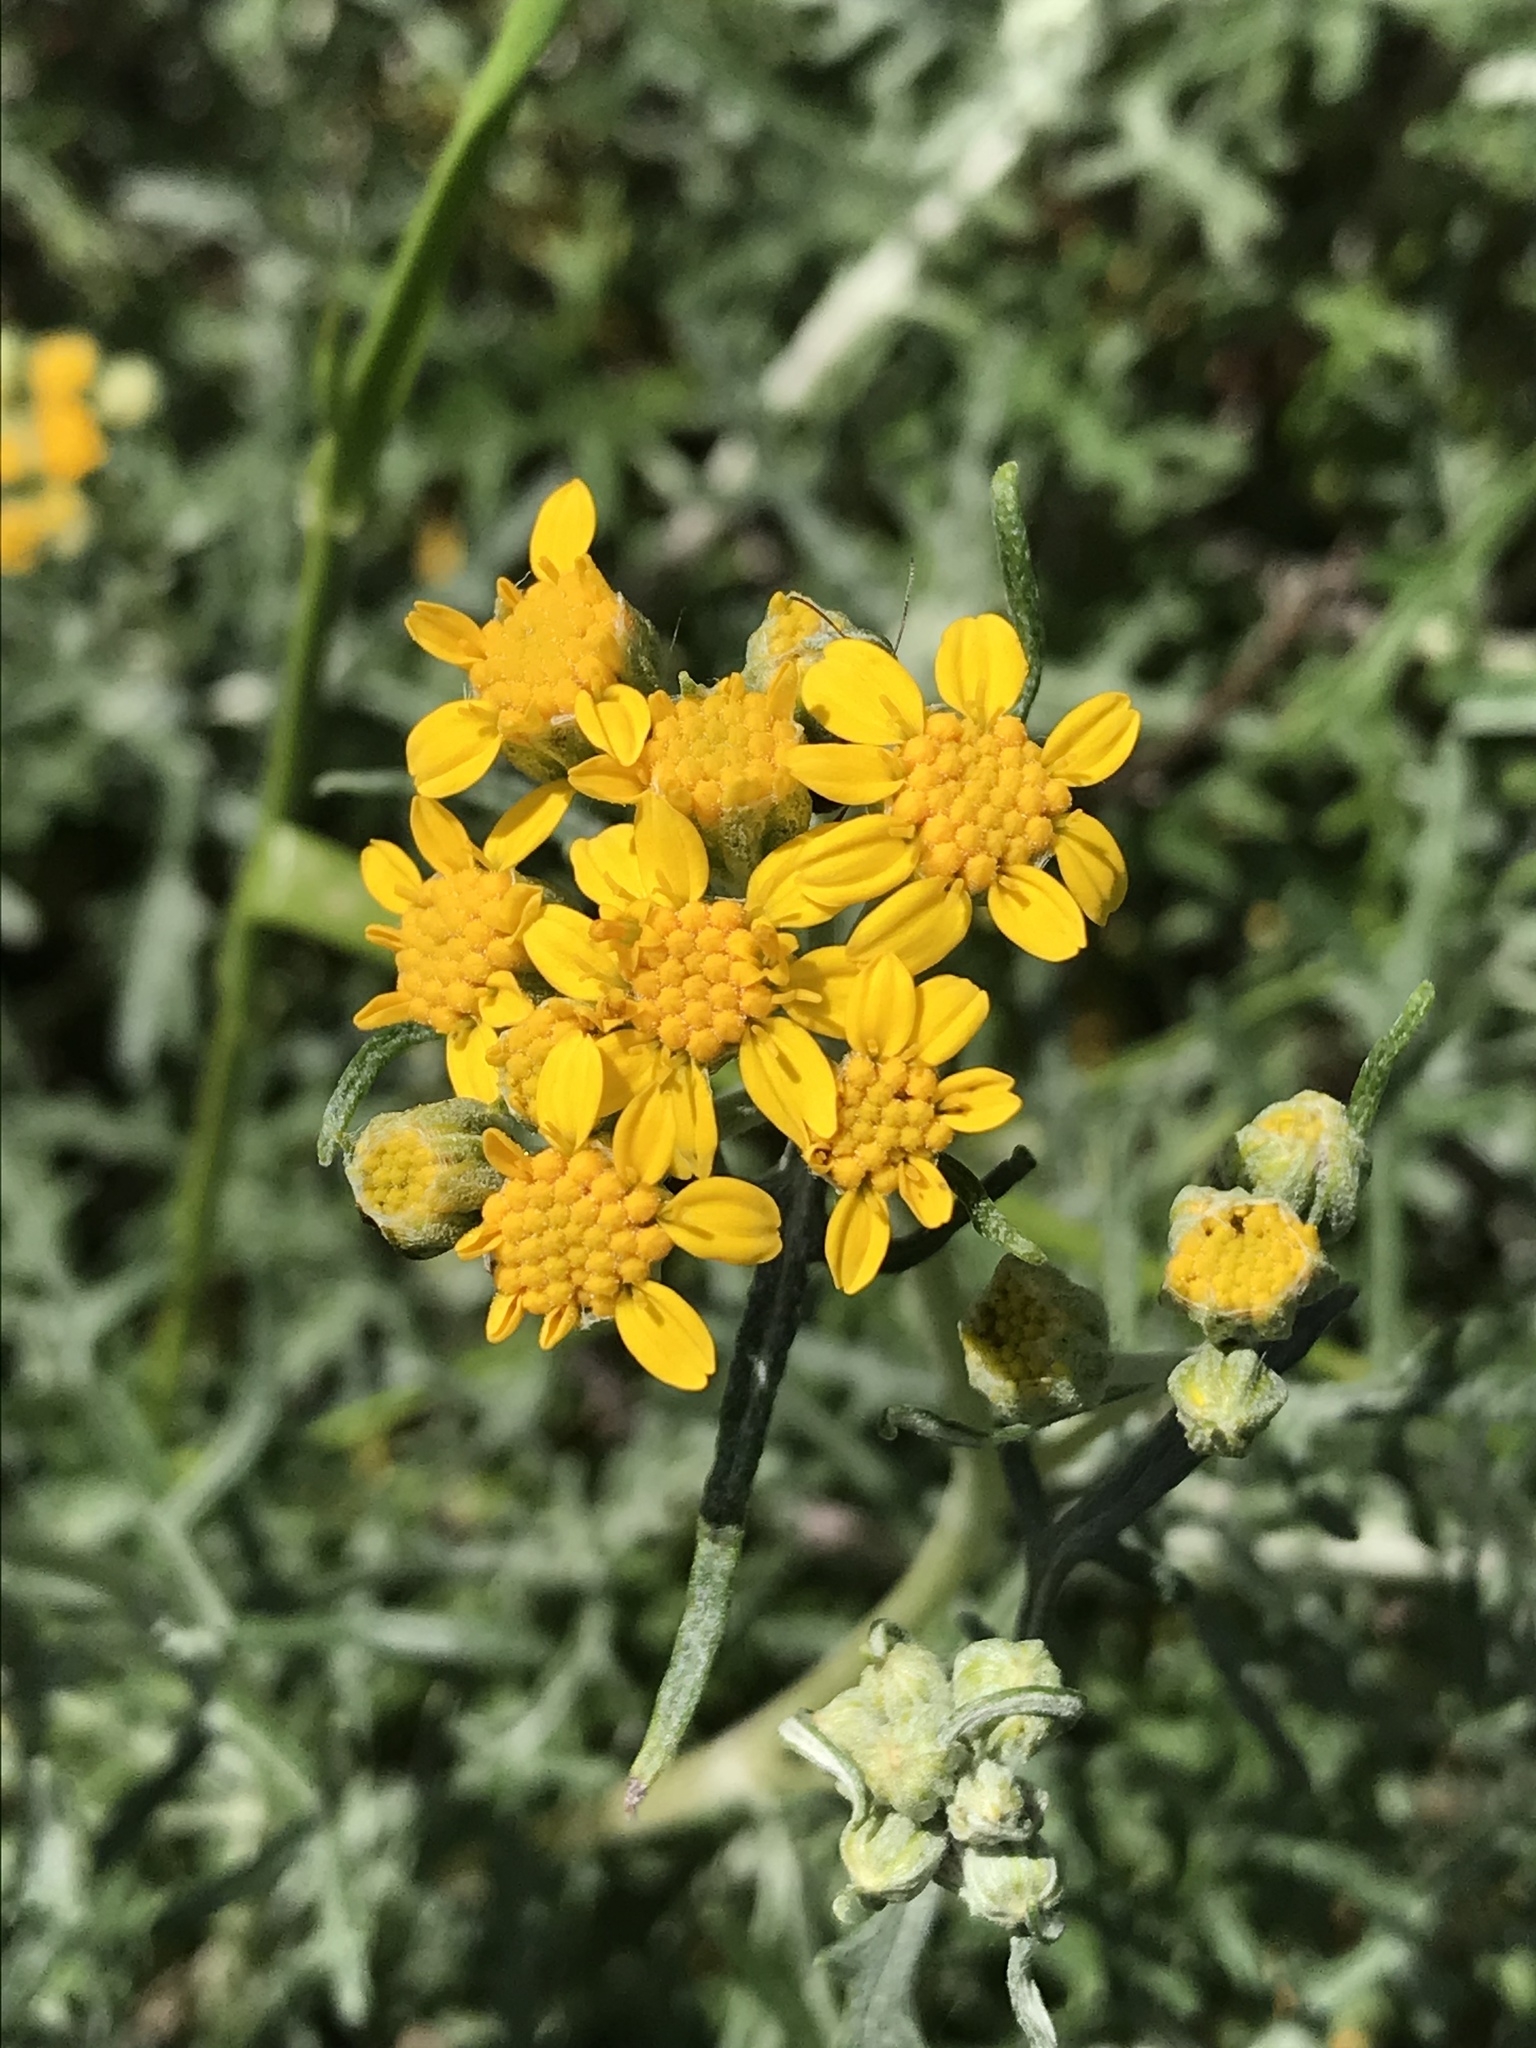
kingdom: Plantae
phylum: Tracheophyta
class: Magnoliopsida
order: Asterales
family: Asteraceae
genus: Eriophyllum
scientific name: Eriophyllum staechadifolium
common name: Lizardtail
